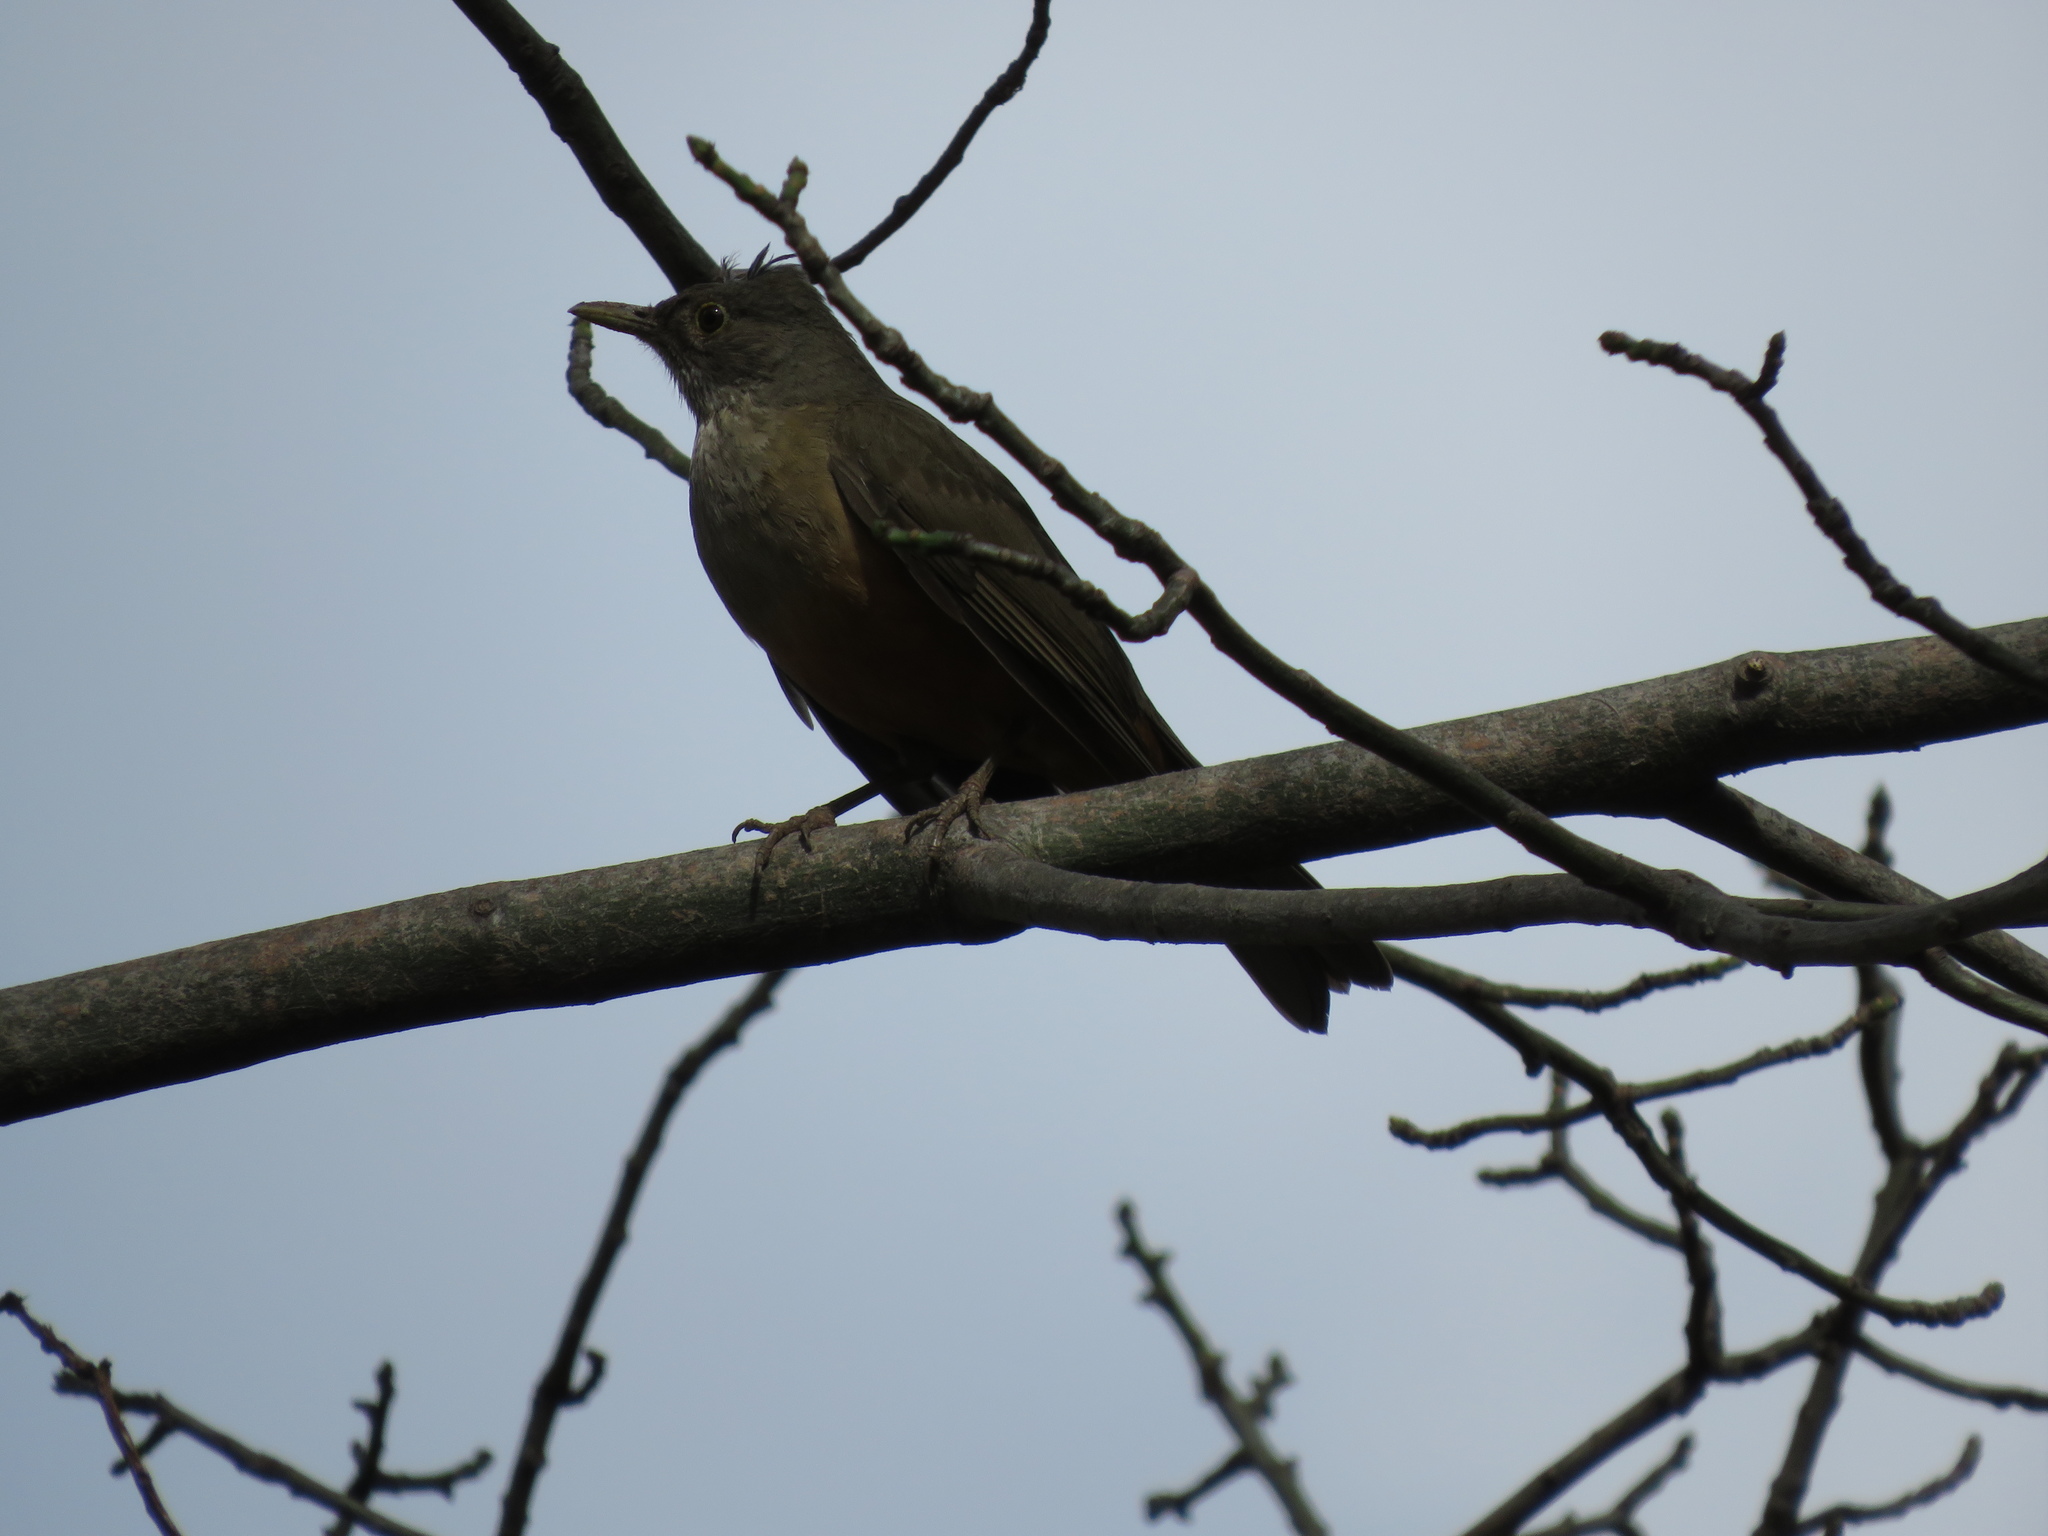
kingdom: Animalia
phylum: Chordata
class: Aves
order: Passeriformes
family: Turdidae
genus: Turdus
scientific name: Turdus rufiventris
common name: Rufous-bellied thrush
